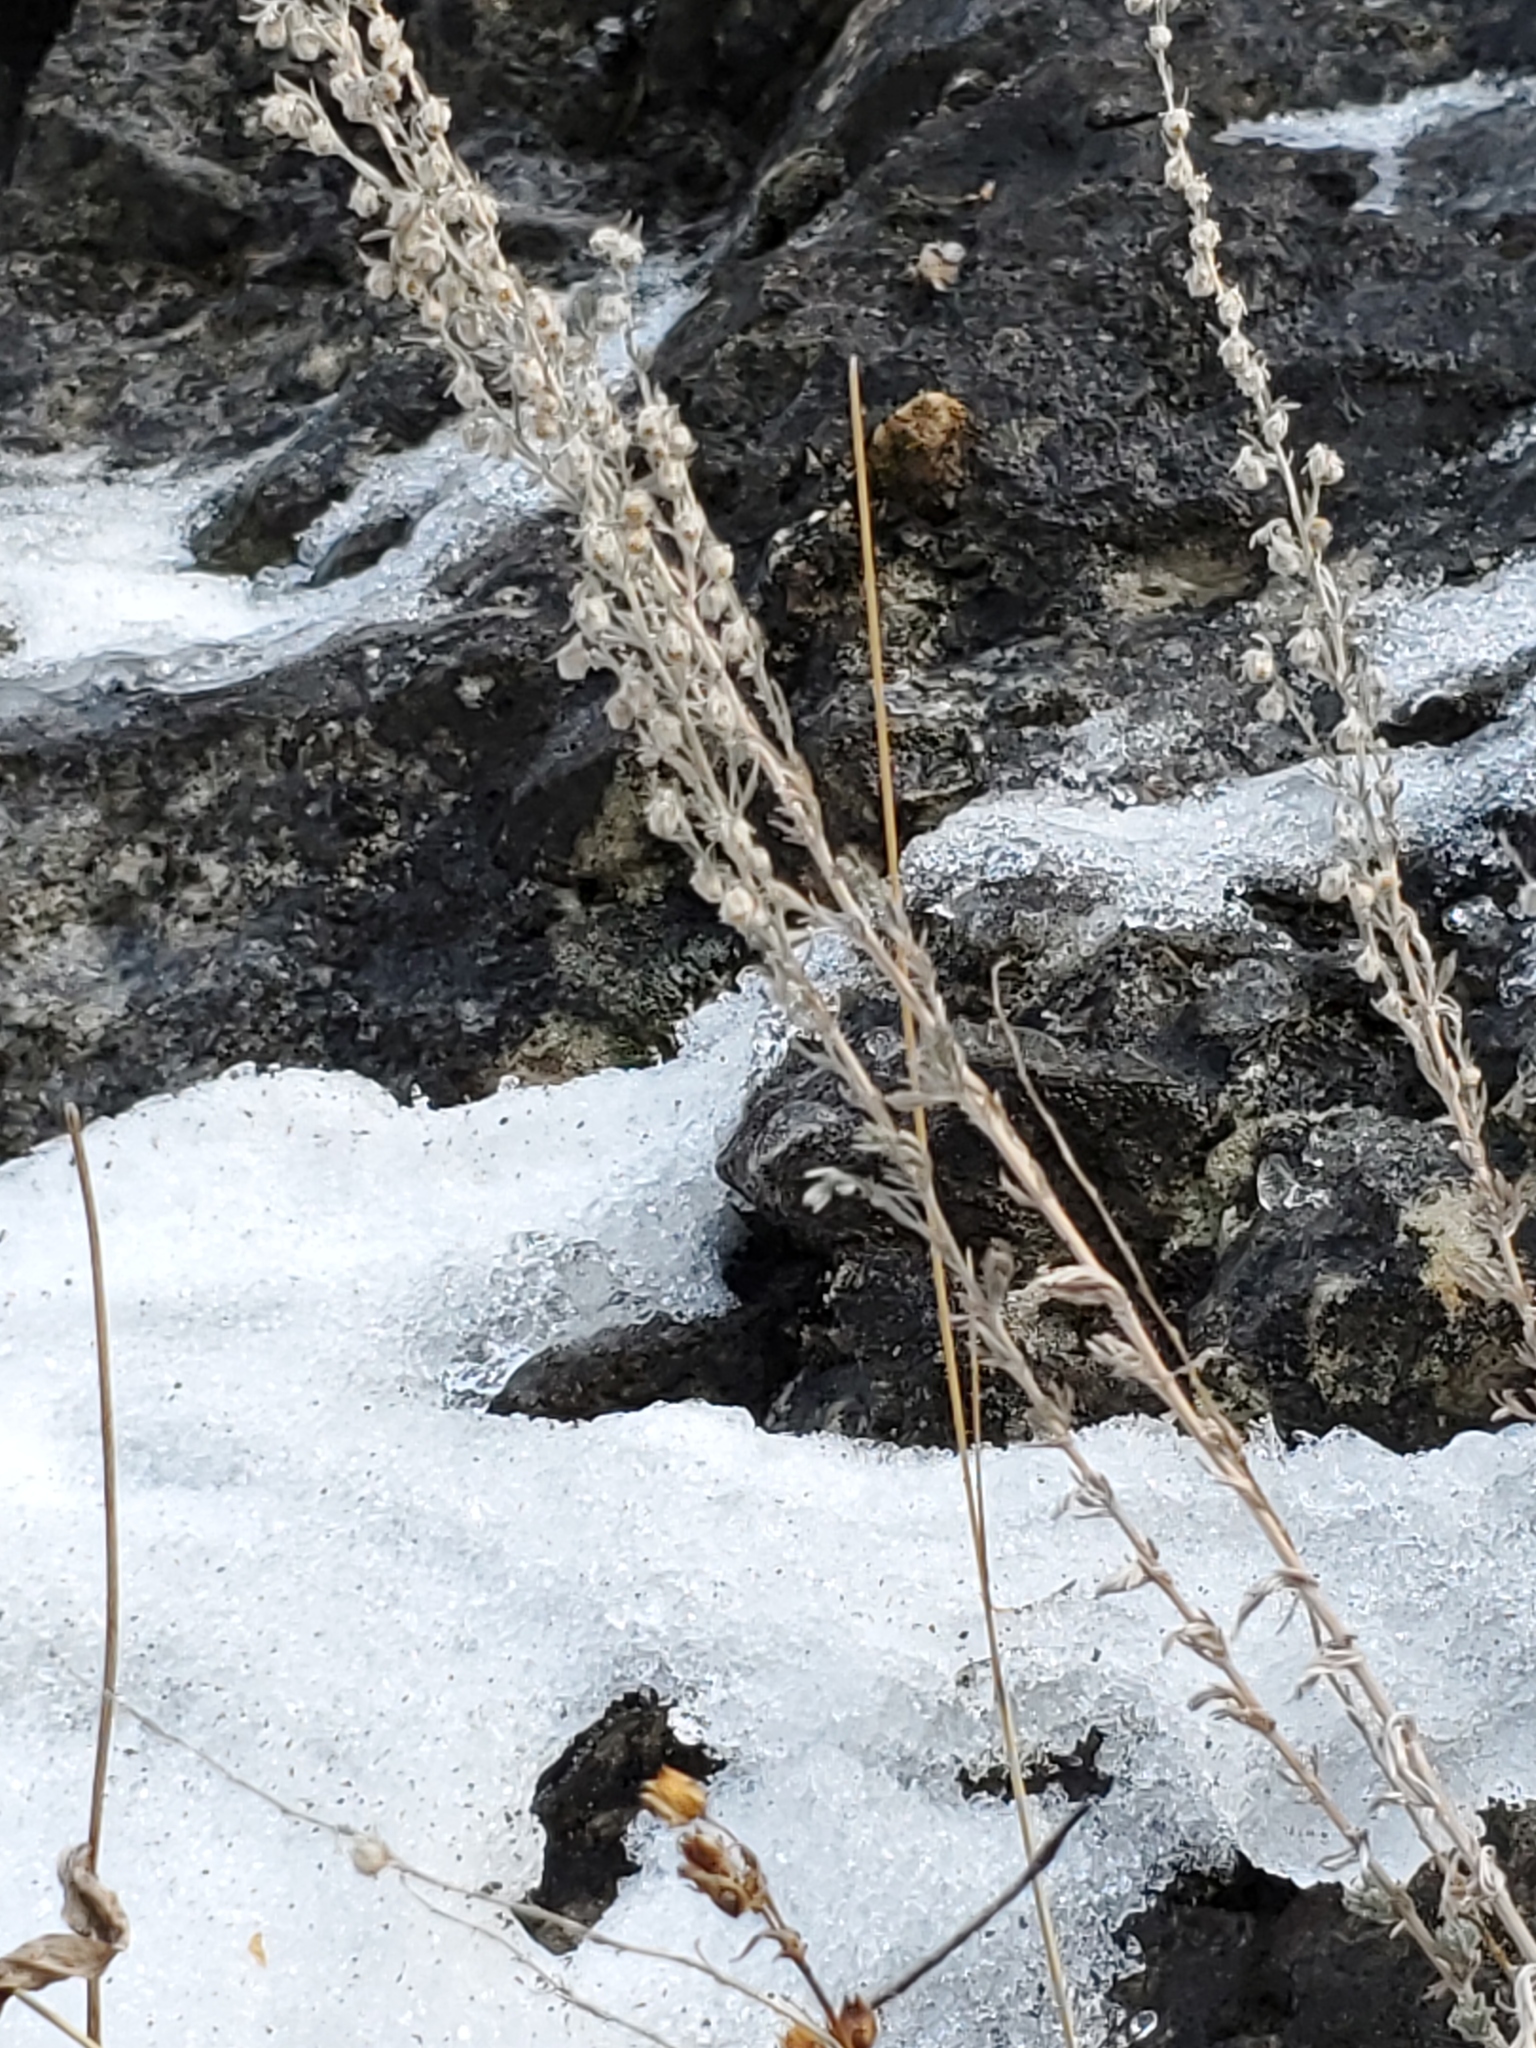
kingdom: Plantae
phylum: Tracheophyta
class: Magnoliopsida
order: Asterales
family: Asteraceae
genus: Artemisia
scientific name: Artemisia frigida
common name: Prairie sagewort
